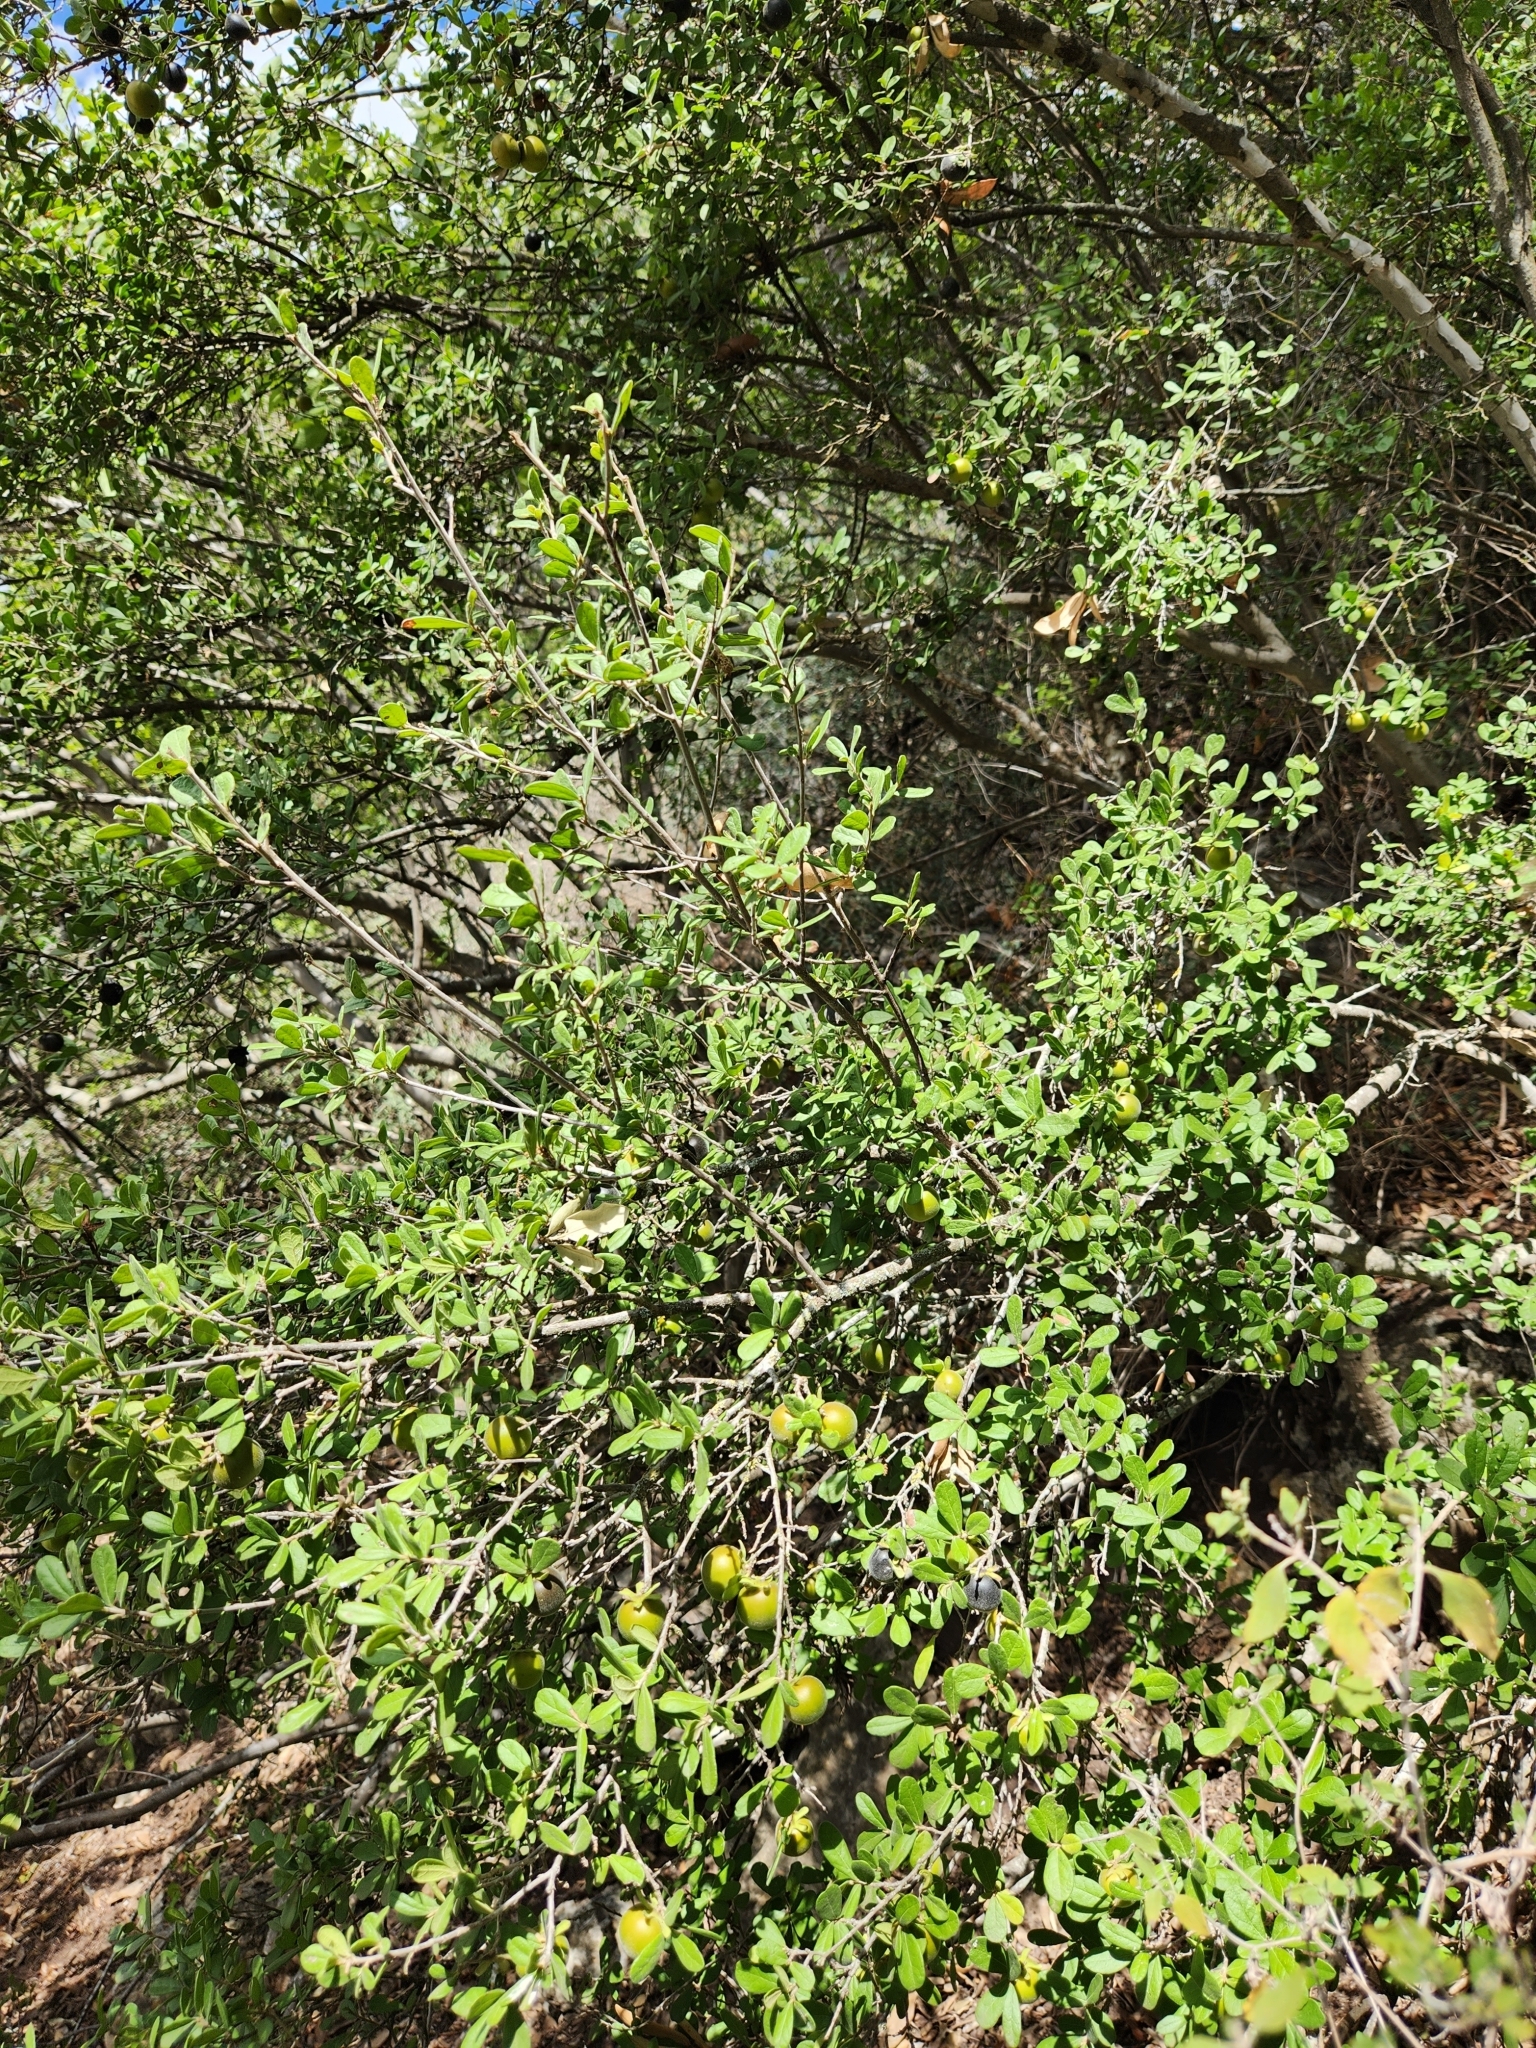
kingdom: Plantae
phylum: Tracheophyta
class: Magnoliopsida
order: Ericales
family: Ebenaceae
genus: Diospyros
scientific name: Diospyros texana
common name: Texas persimmon
